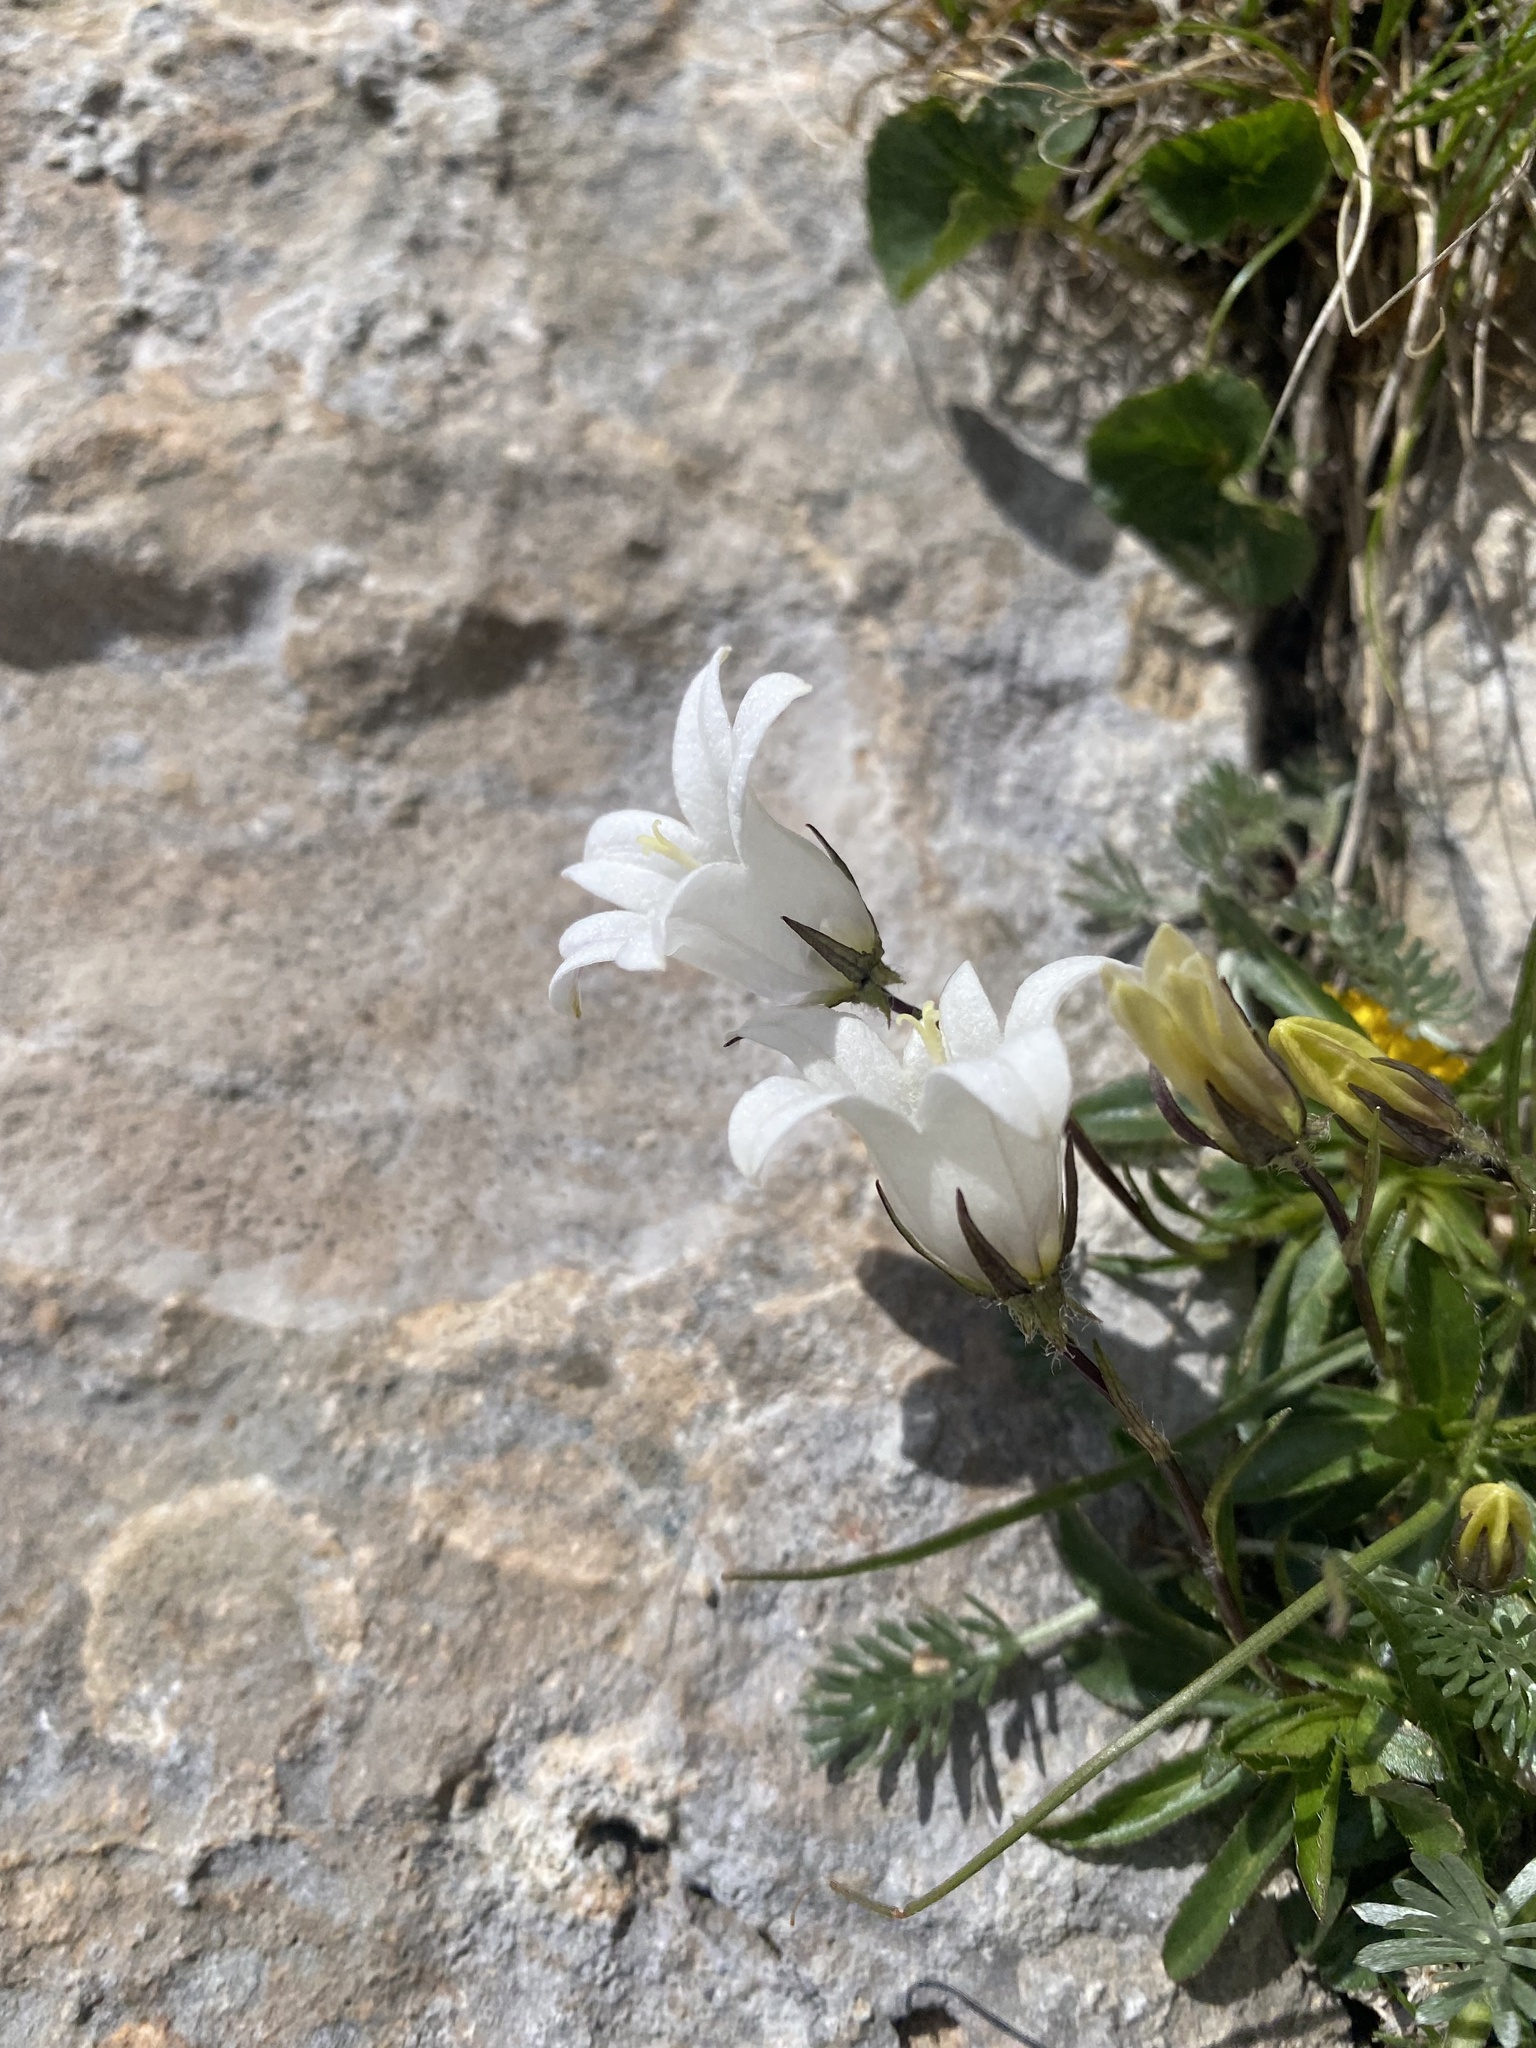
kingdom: Plantae
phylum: Tracheophyta
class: Magnoliopsida
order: Asterales
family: Campanulaceae
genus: Campanula
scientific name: Campanula ciliata
